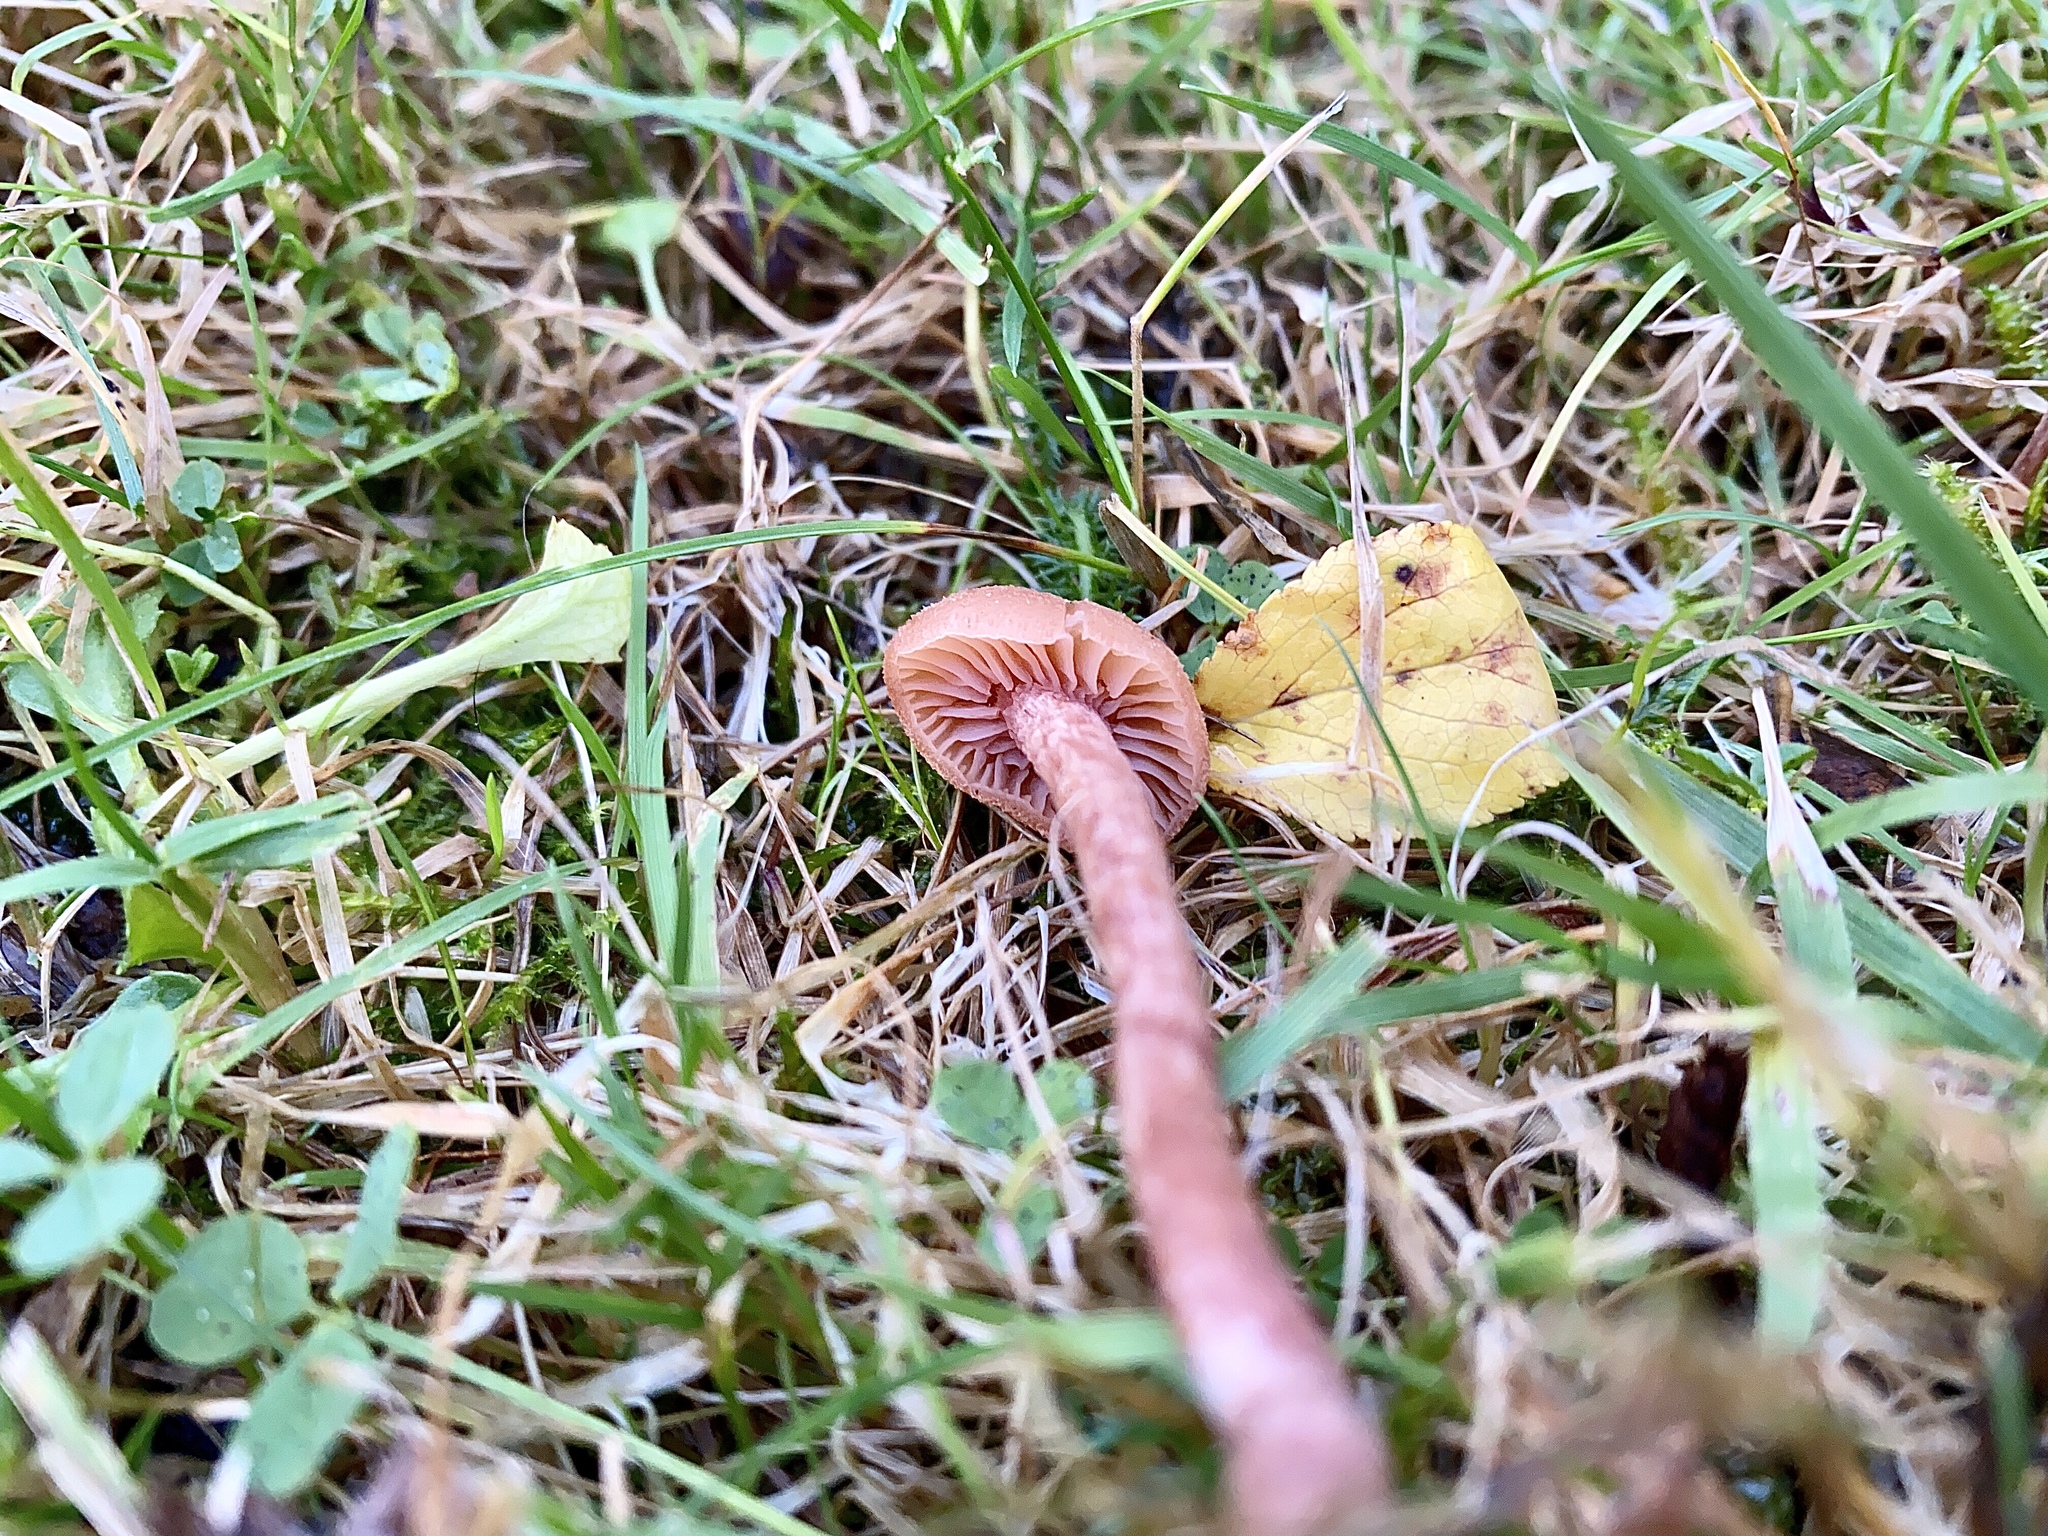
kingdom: Fungi
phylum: Basidiomycota
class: Agaricomycetes
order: Agaricales
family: Hydnangiaceae
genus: Laccaria
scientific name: Laccaria laccata
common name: Deceiver
